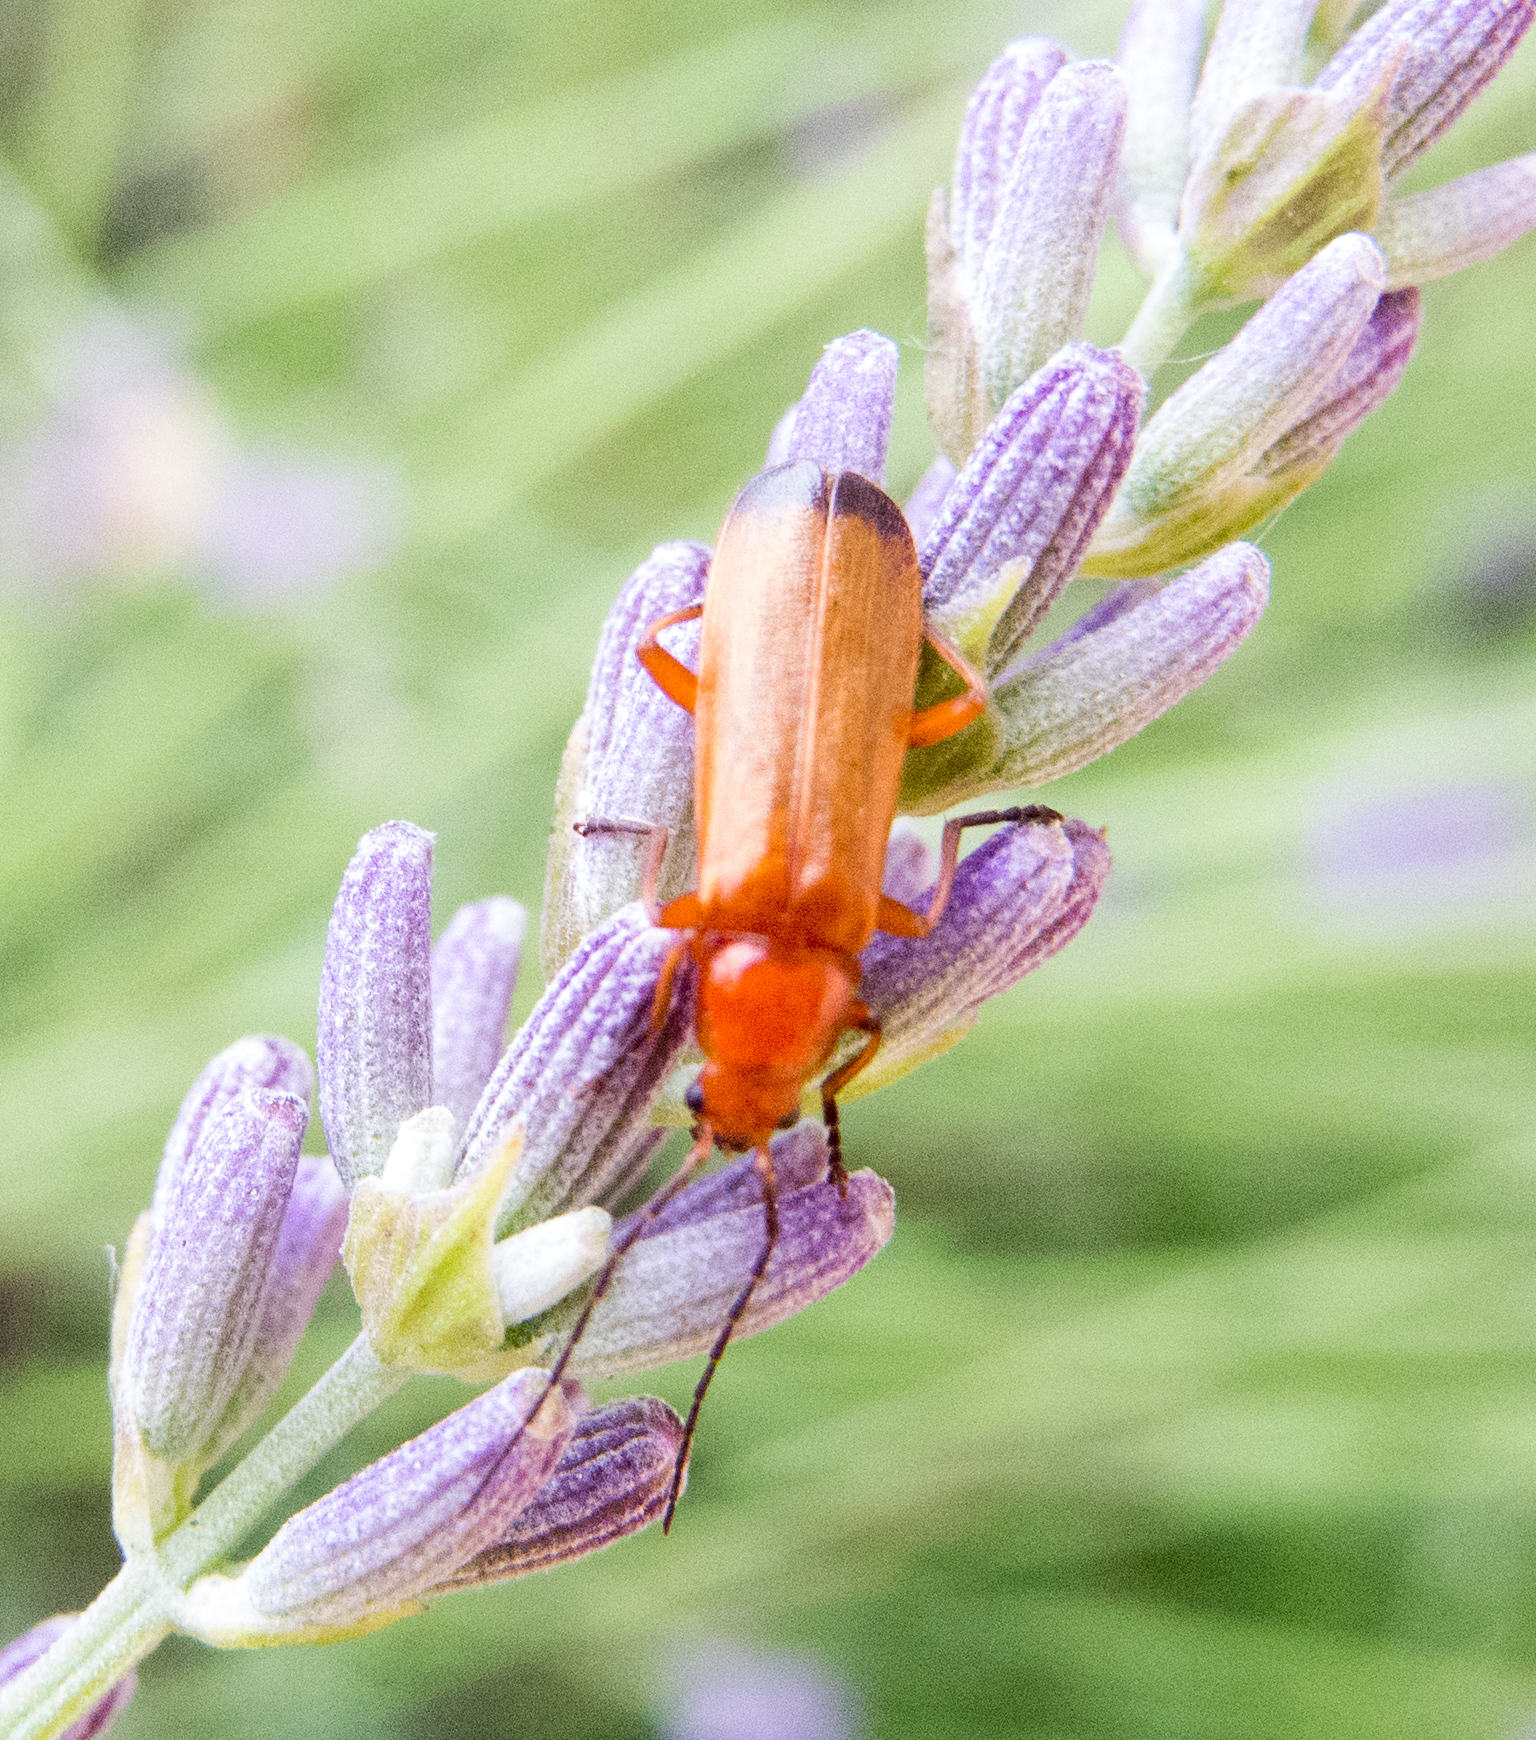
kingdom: Animalia
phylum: Arthropoda
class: Insecta
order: Coleoptera
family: Cantharidae
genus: Rhagonycha
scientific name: Rhagonycha fulva
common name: Common red soldier beetle
